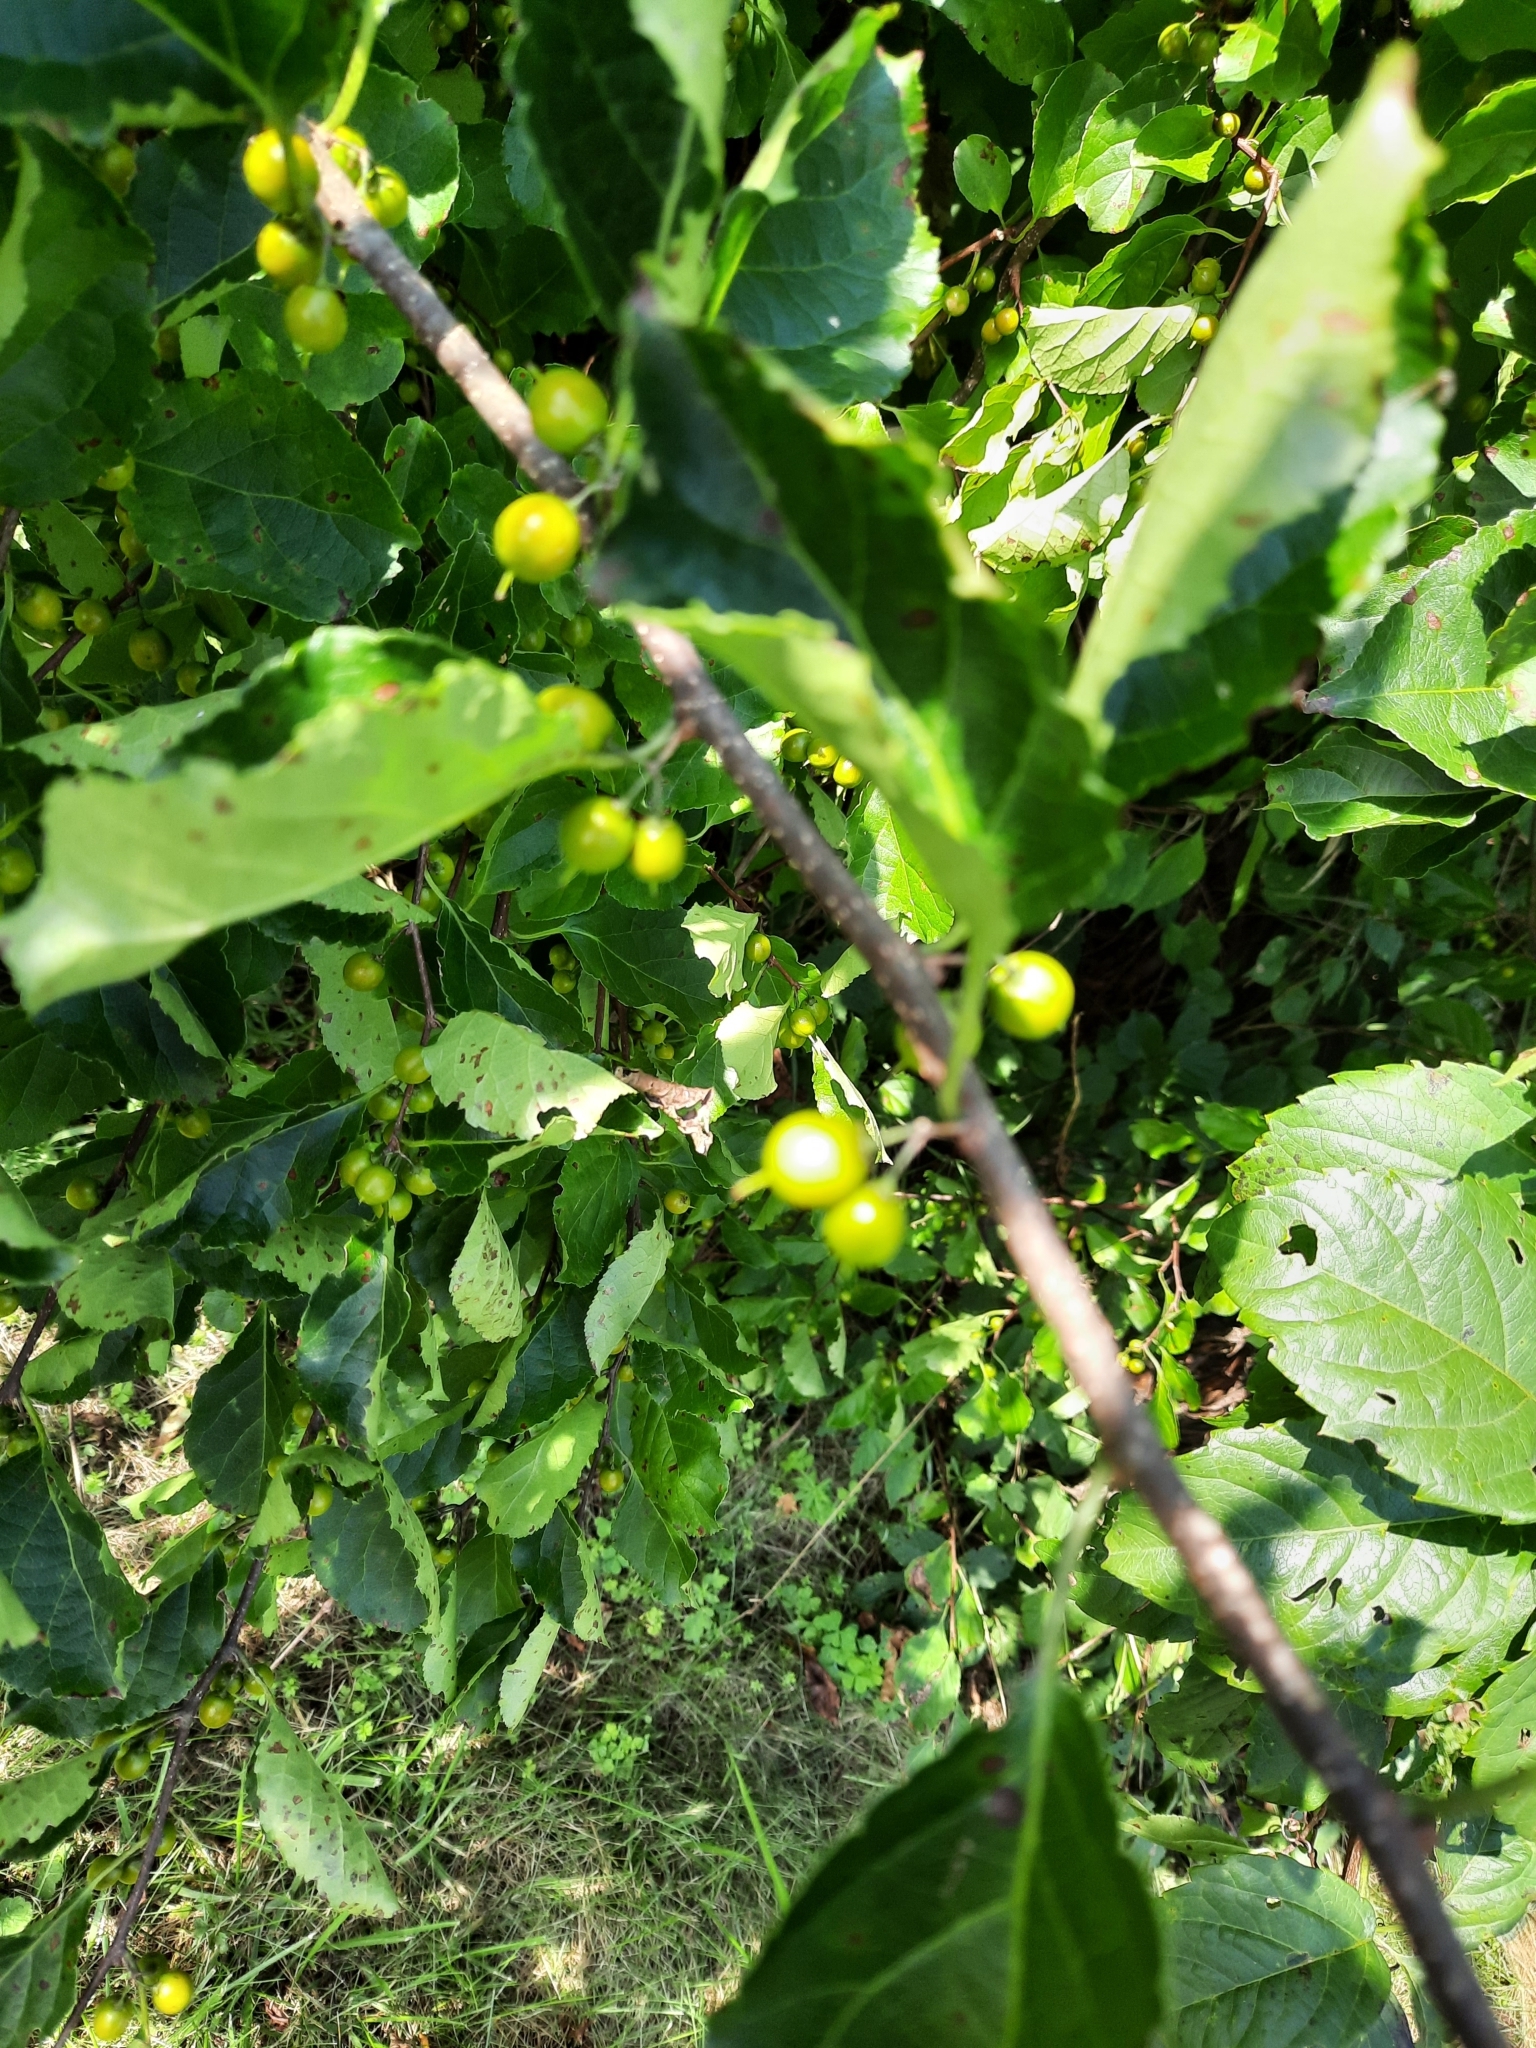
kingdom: Plantae
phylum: Tracheophyta
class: Magnoliopsida
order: Celastrales
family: Celastraceae
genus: Celastrus
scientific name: Celastrus orbiculatus
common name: Oriental bittersweet
